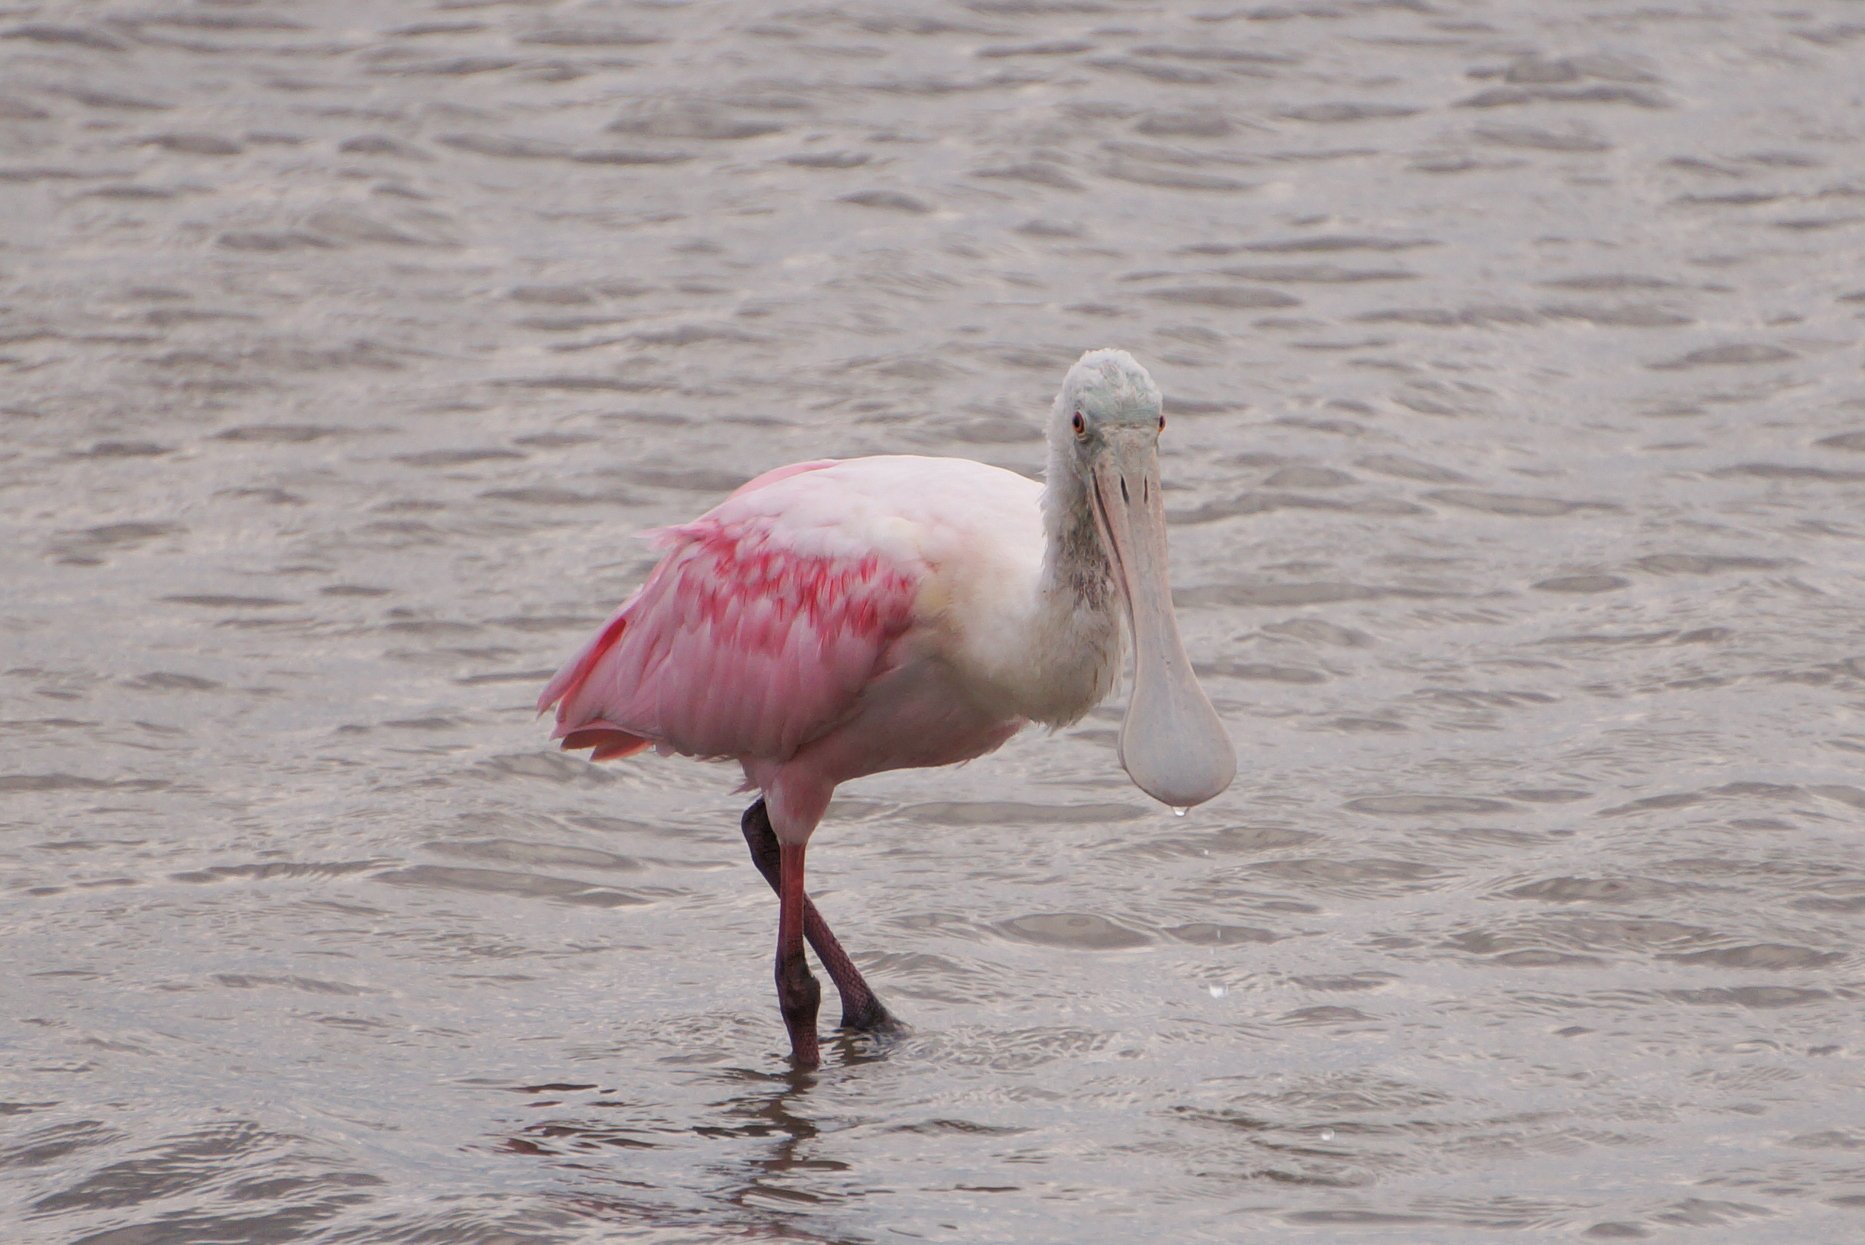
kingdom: Animalia
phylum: Chordata
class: Aves
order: Pelecaniformes
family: Threskiornithidae
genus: Platalea
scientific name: Platalea ajaja
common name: Roseate spoonbill
